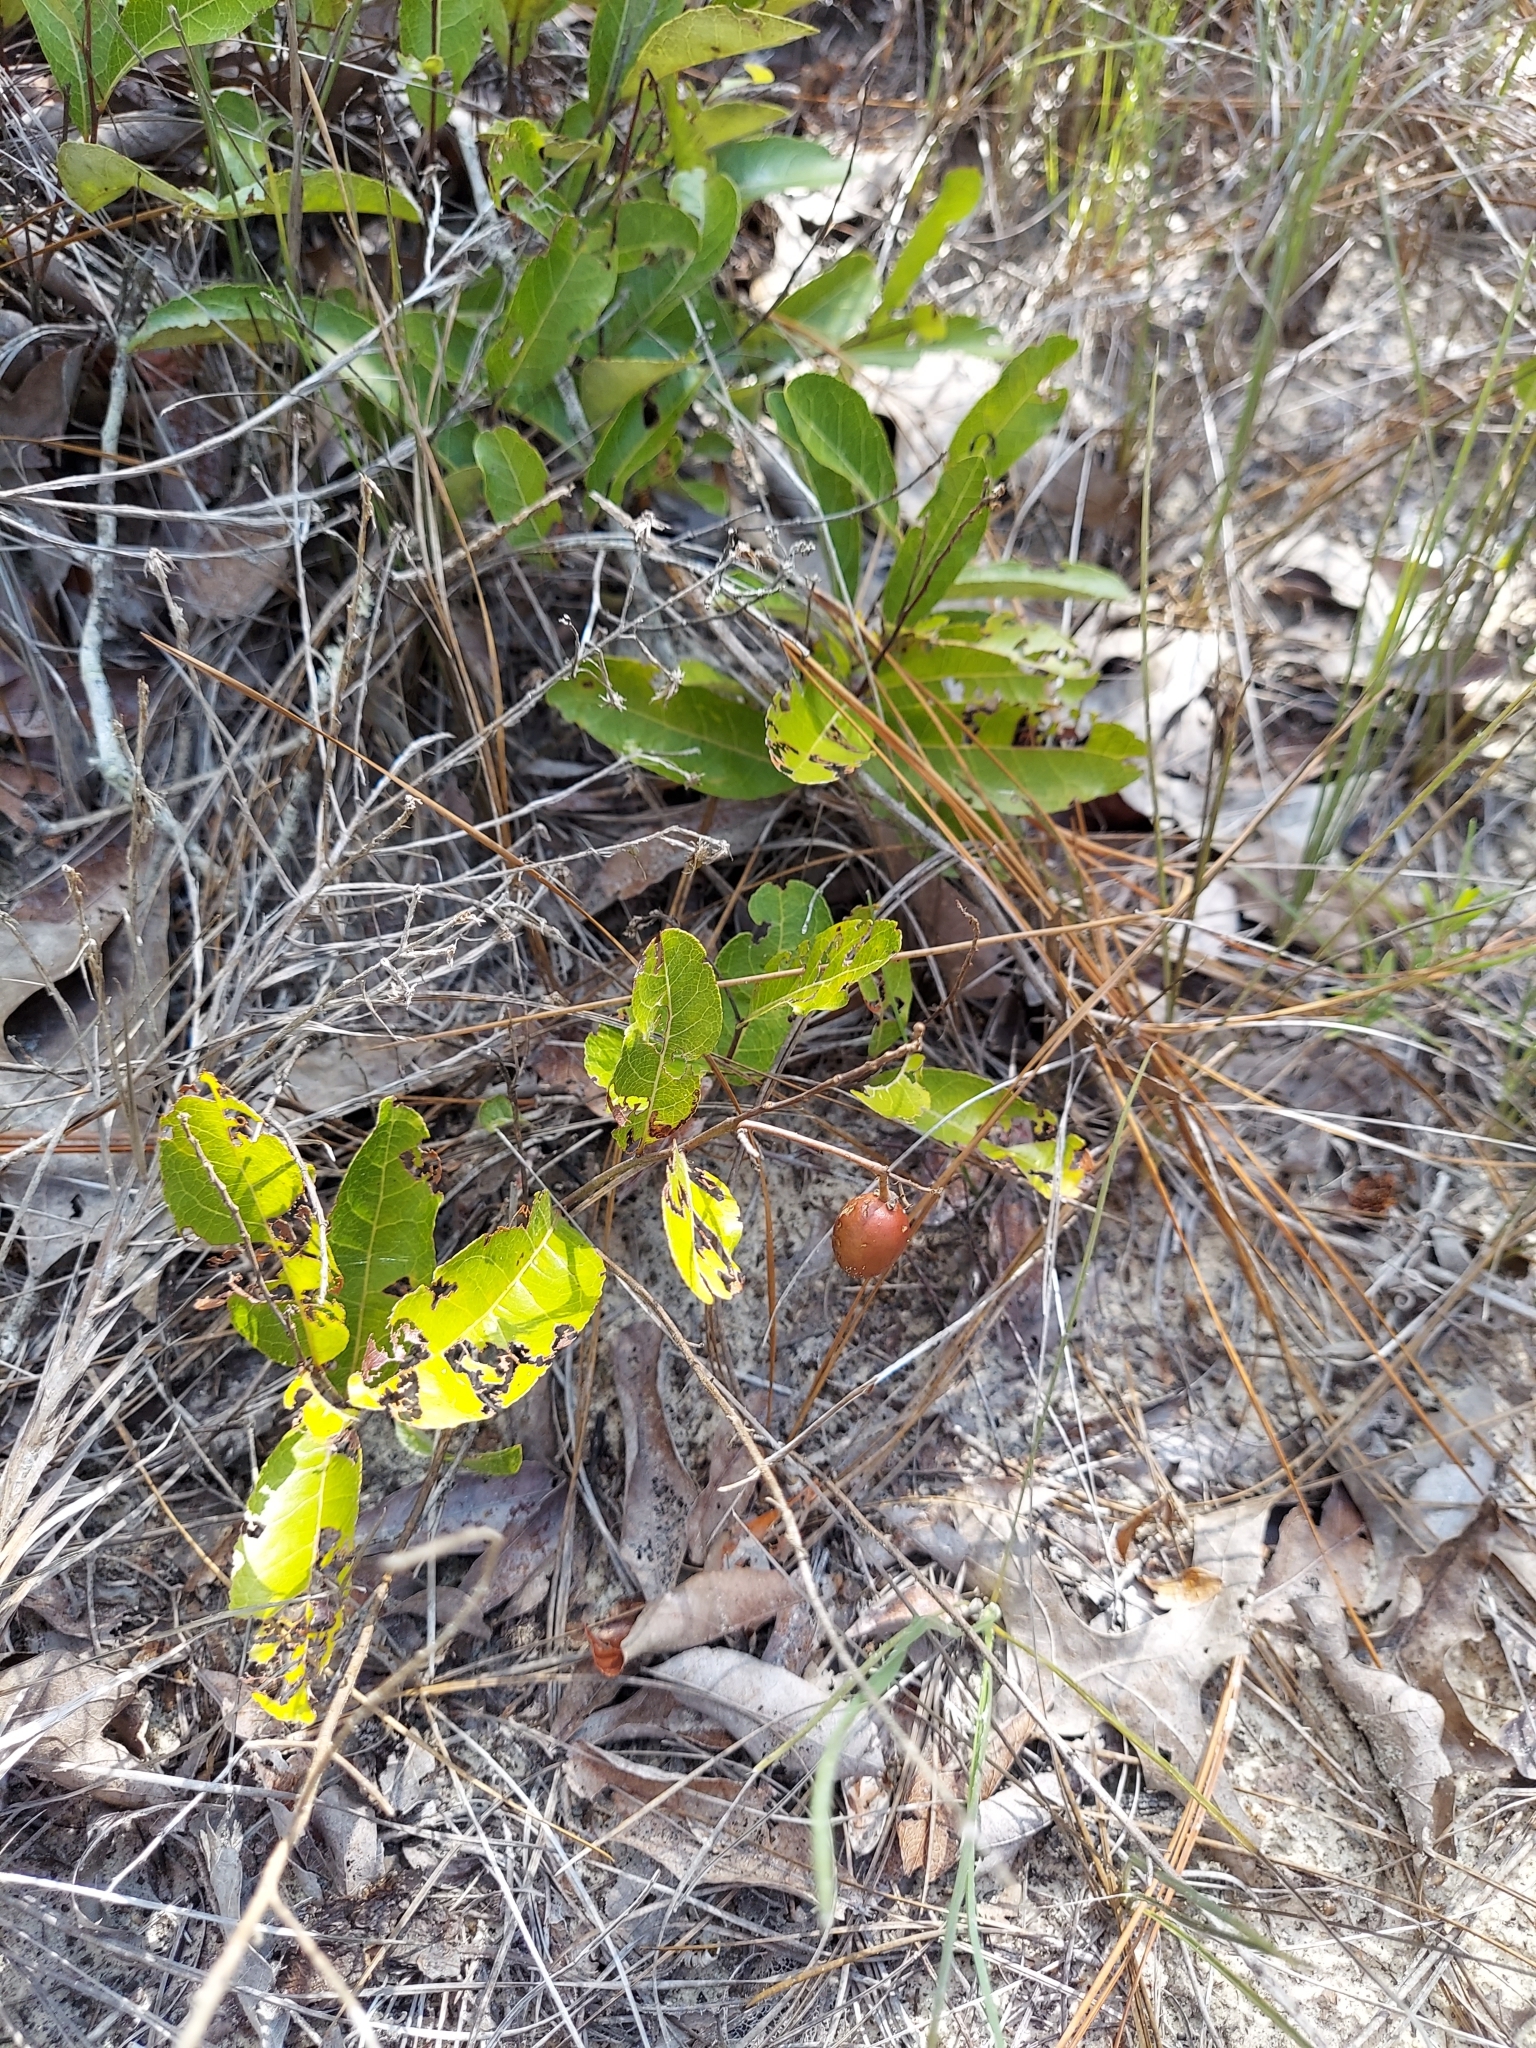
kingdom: Plantae
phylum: Tracheophyta
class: Magnoliopsida
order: Malpighiales
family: Chrysobalanaceae
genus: Geobalanus
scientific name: Geobalanus oblongifolius
